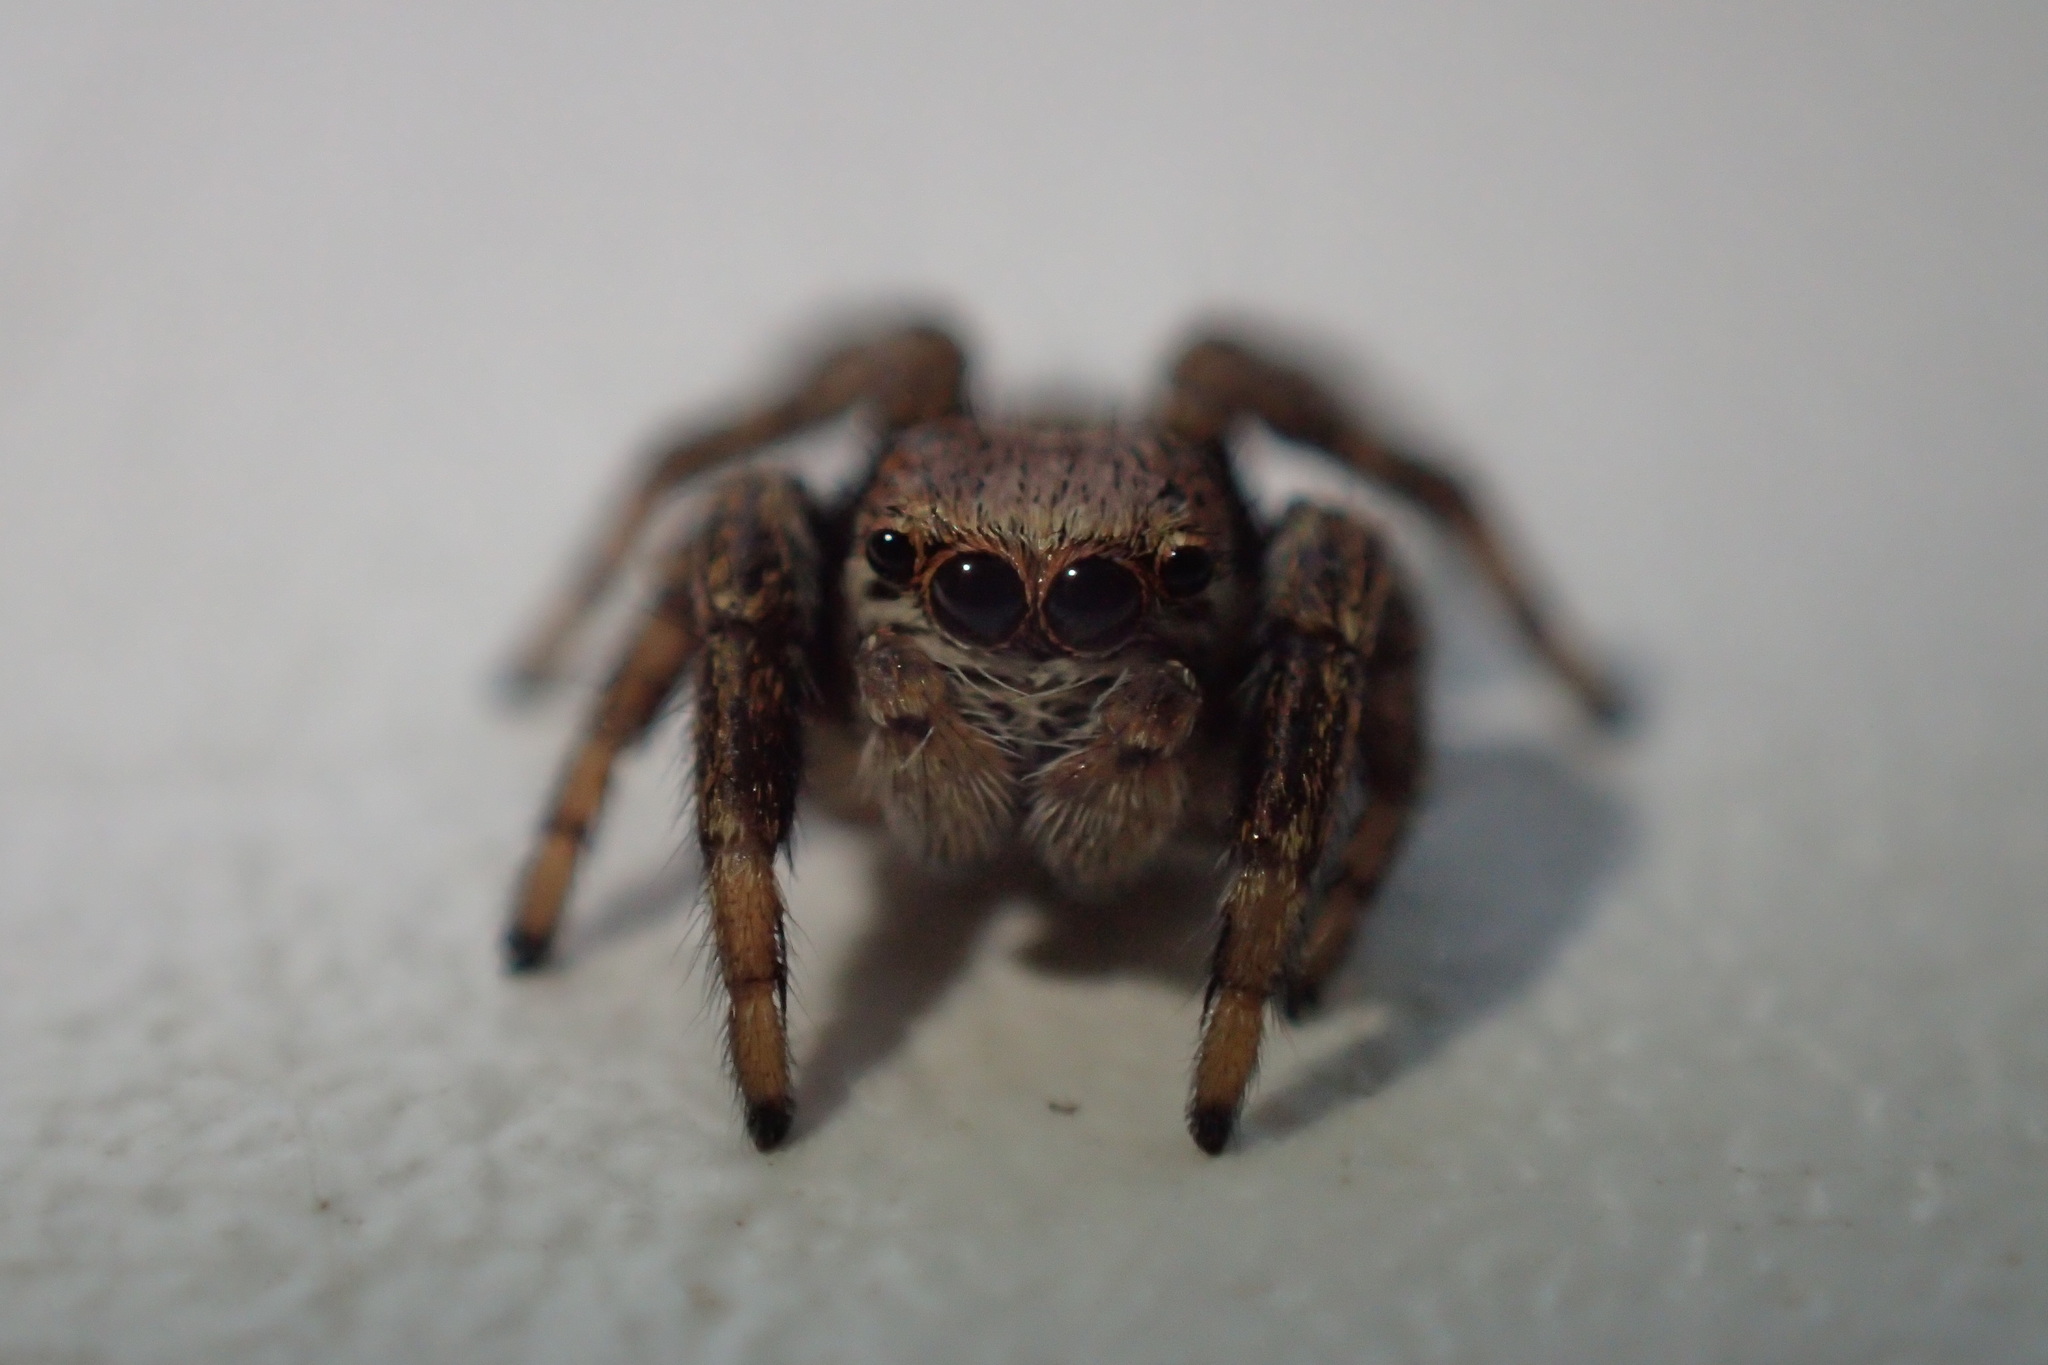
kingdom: Animalia
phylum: Arthropoda
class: Arachnida
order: Araneae
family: Salticidae
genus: Evarcha
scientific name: Evarcha arcuata
